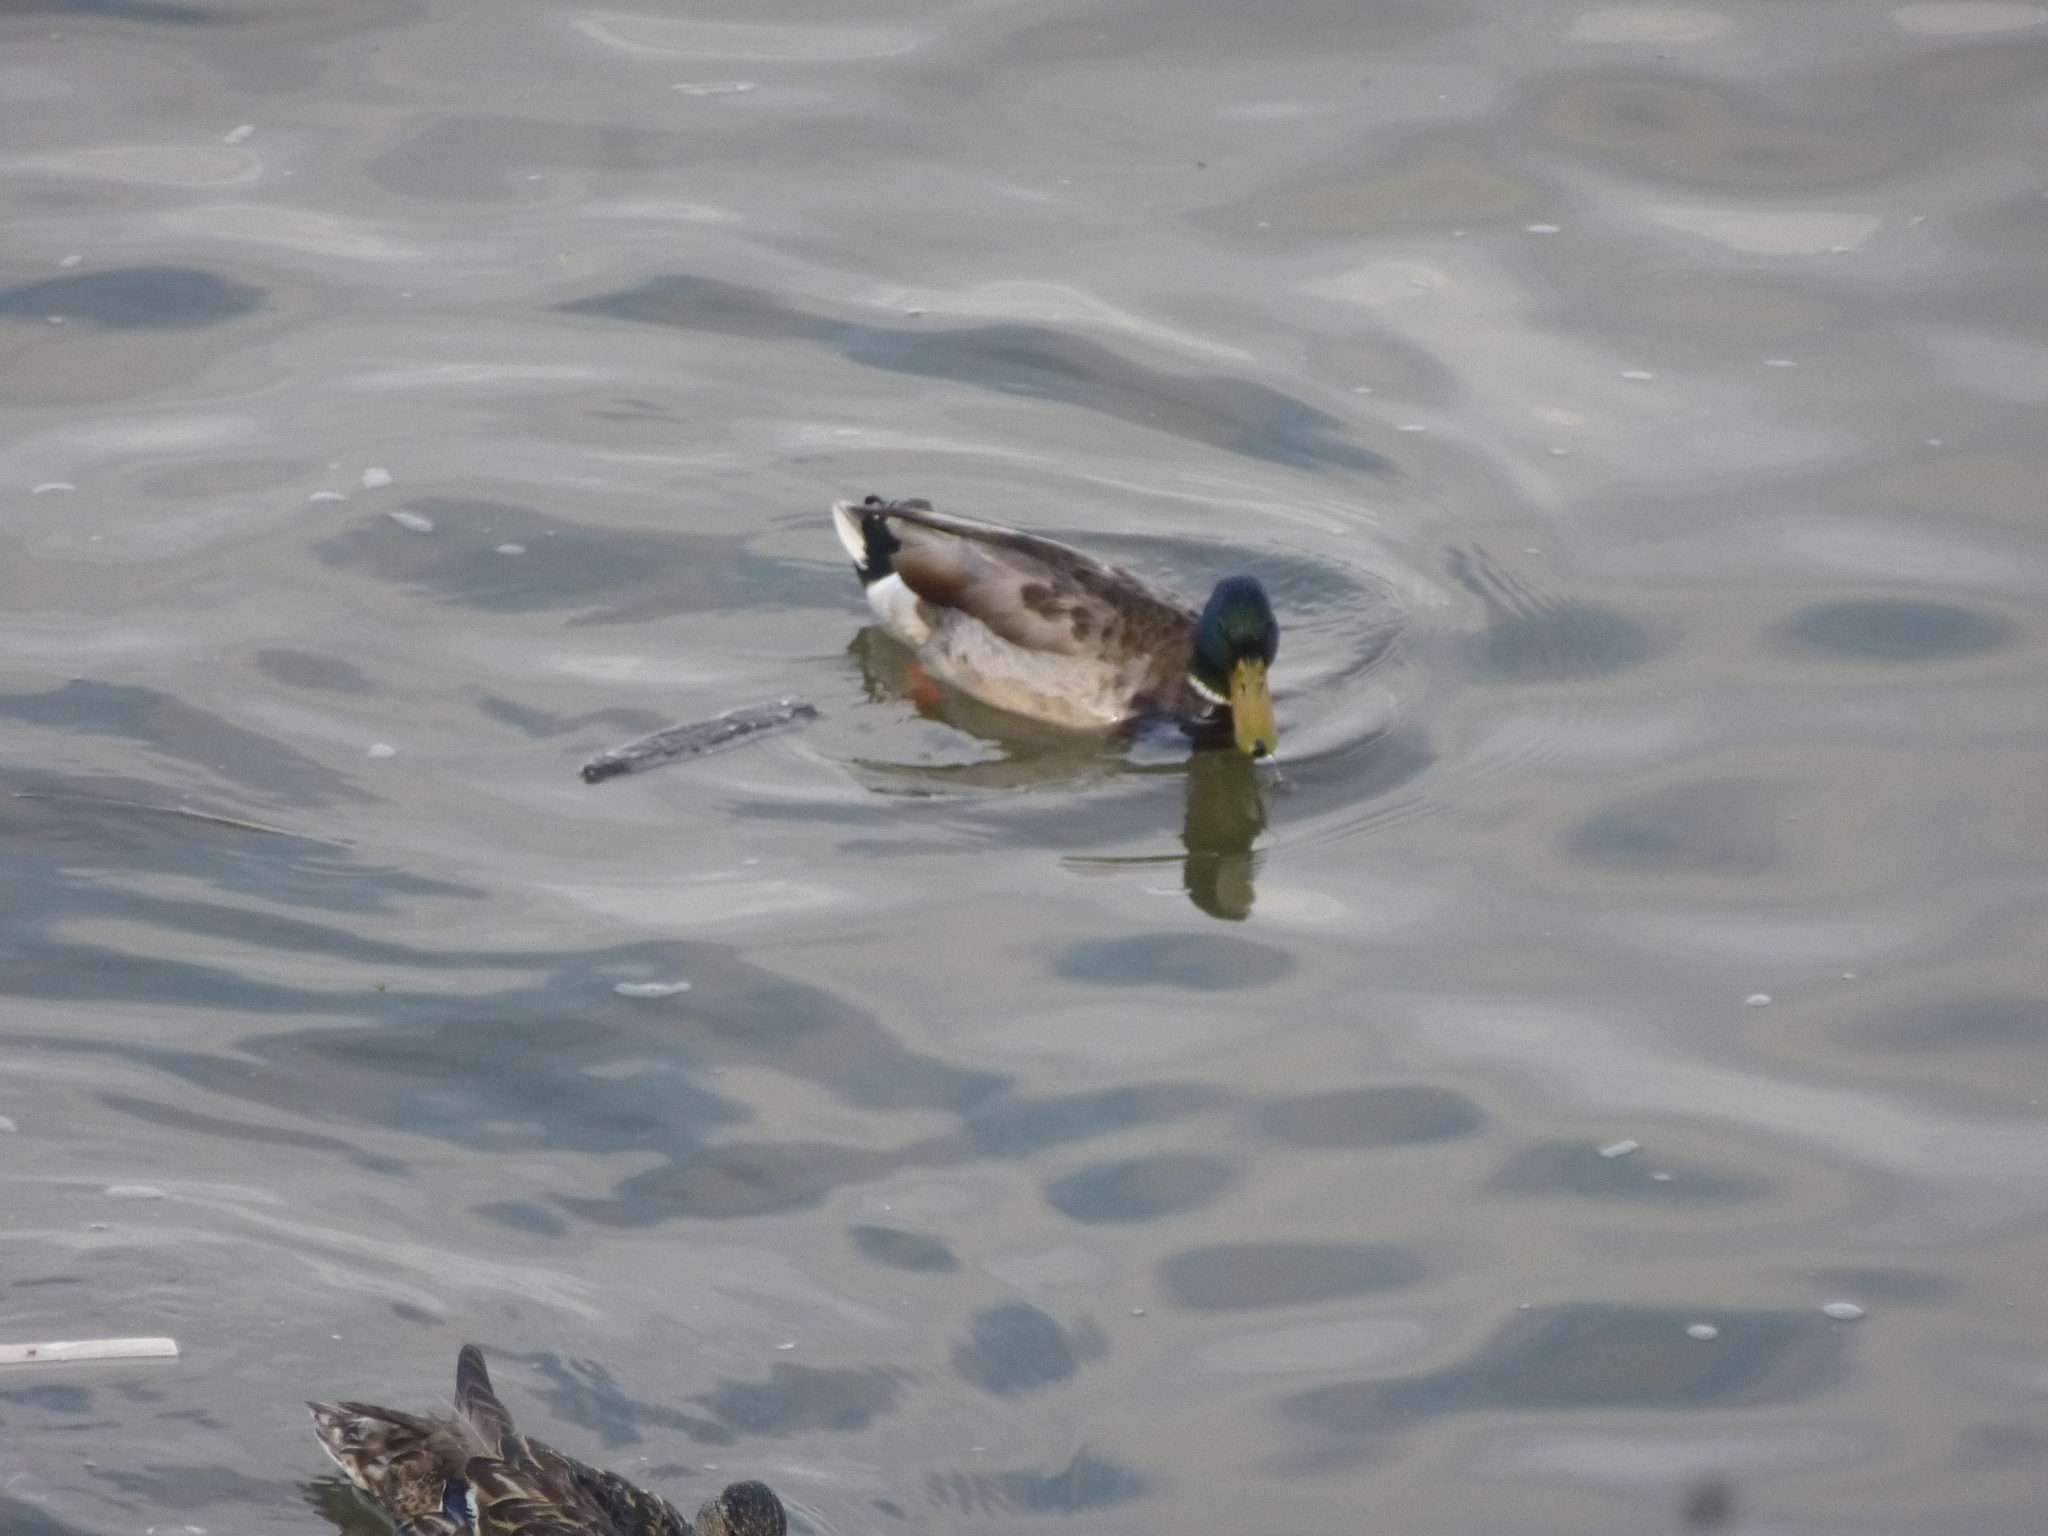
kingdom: Animalia
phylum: Chordata
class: Aves
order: Anseriformes
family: Anatidae
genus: Anas
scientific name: Anas platyrhynchos
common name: Mallard
